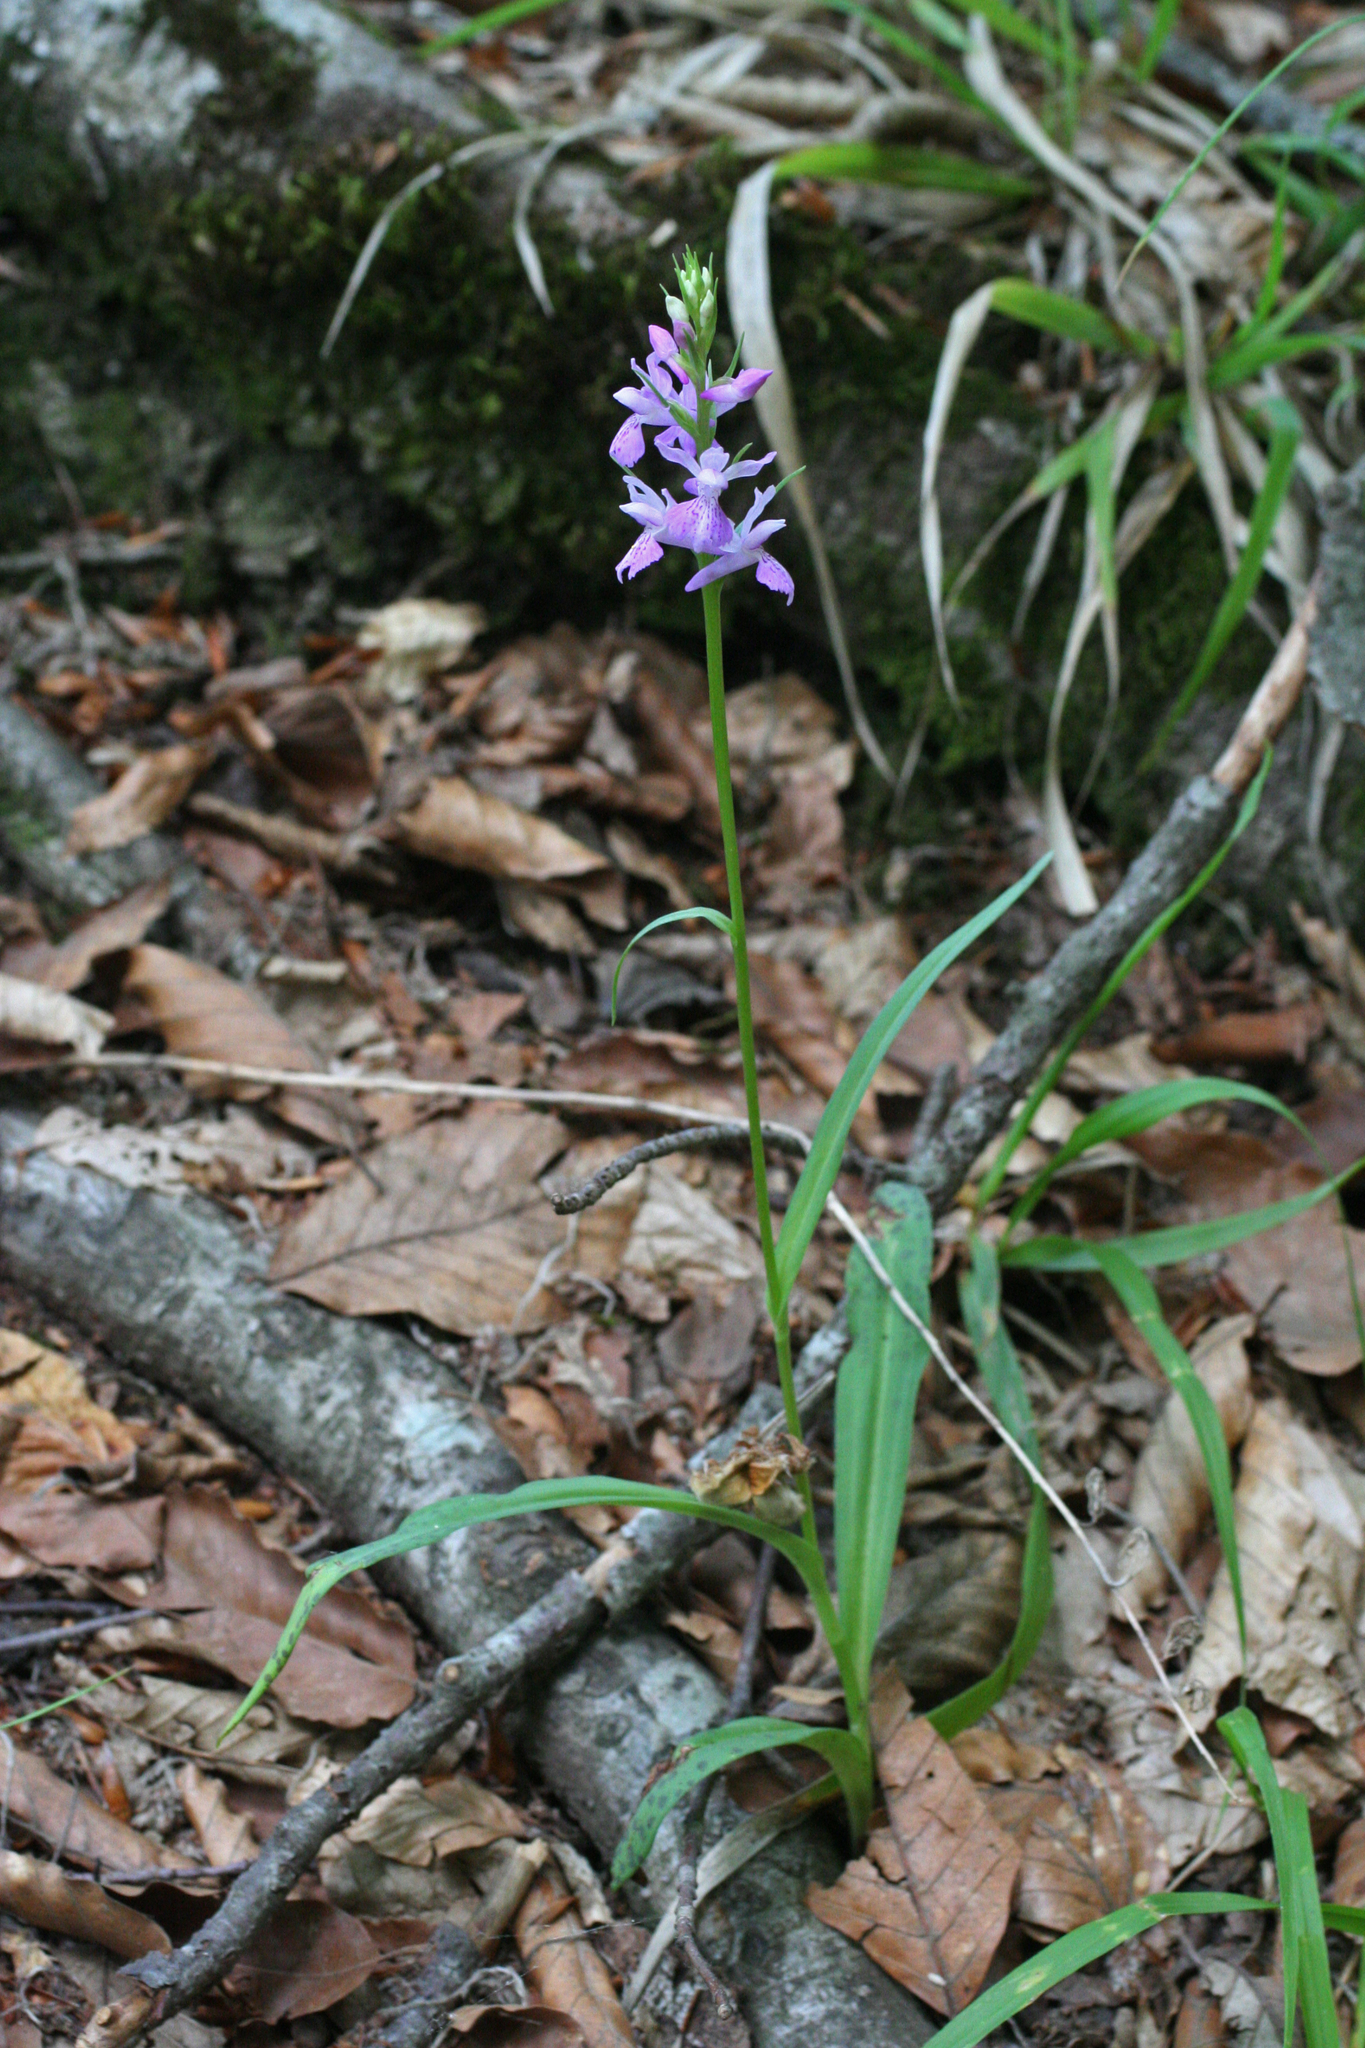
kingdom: Plantae
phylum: Tracheophyta
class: Liliopsida
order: Asparagales
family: Orchidaceae
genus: Dactylorhiza
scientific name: Dactylorhiza maculata
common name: Heath spotted-orchid
